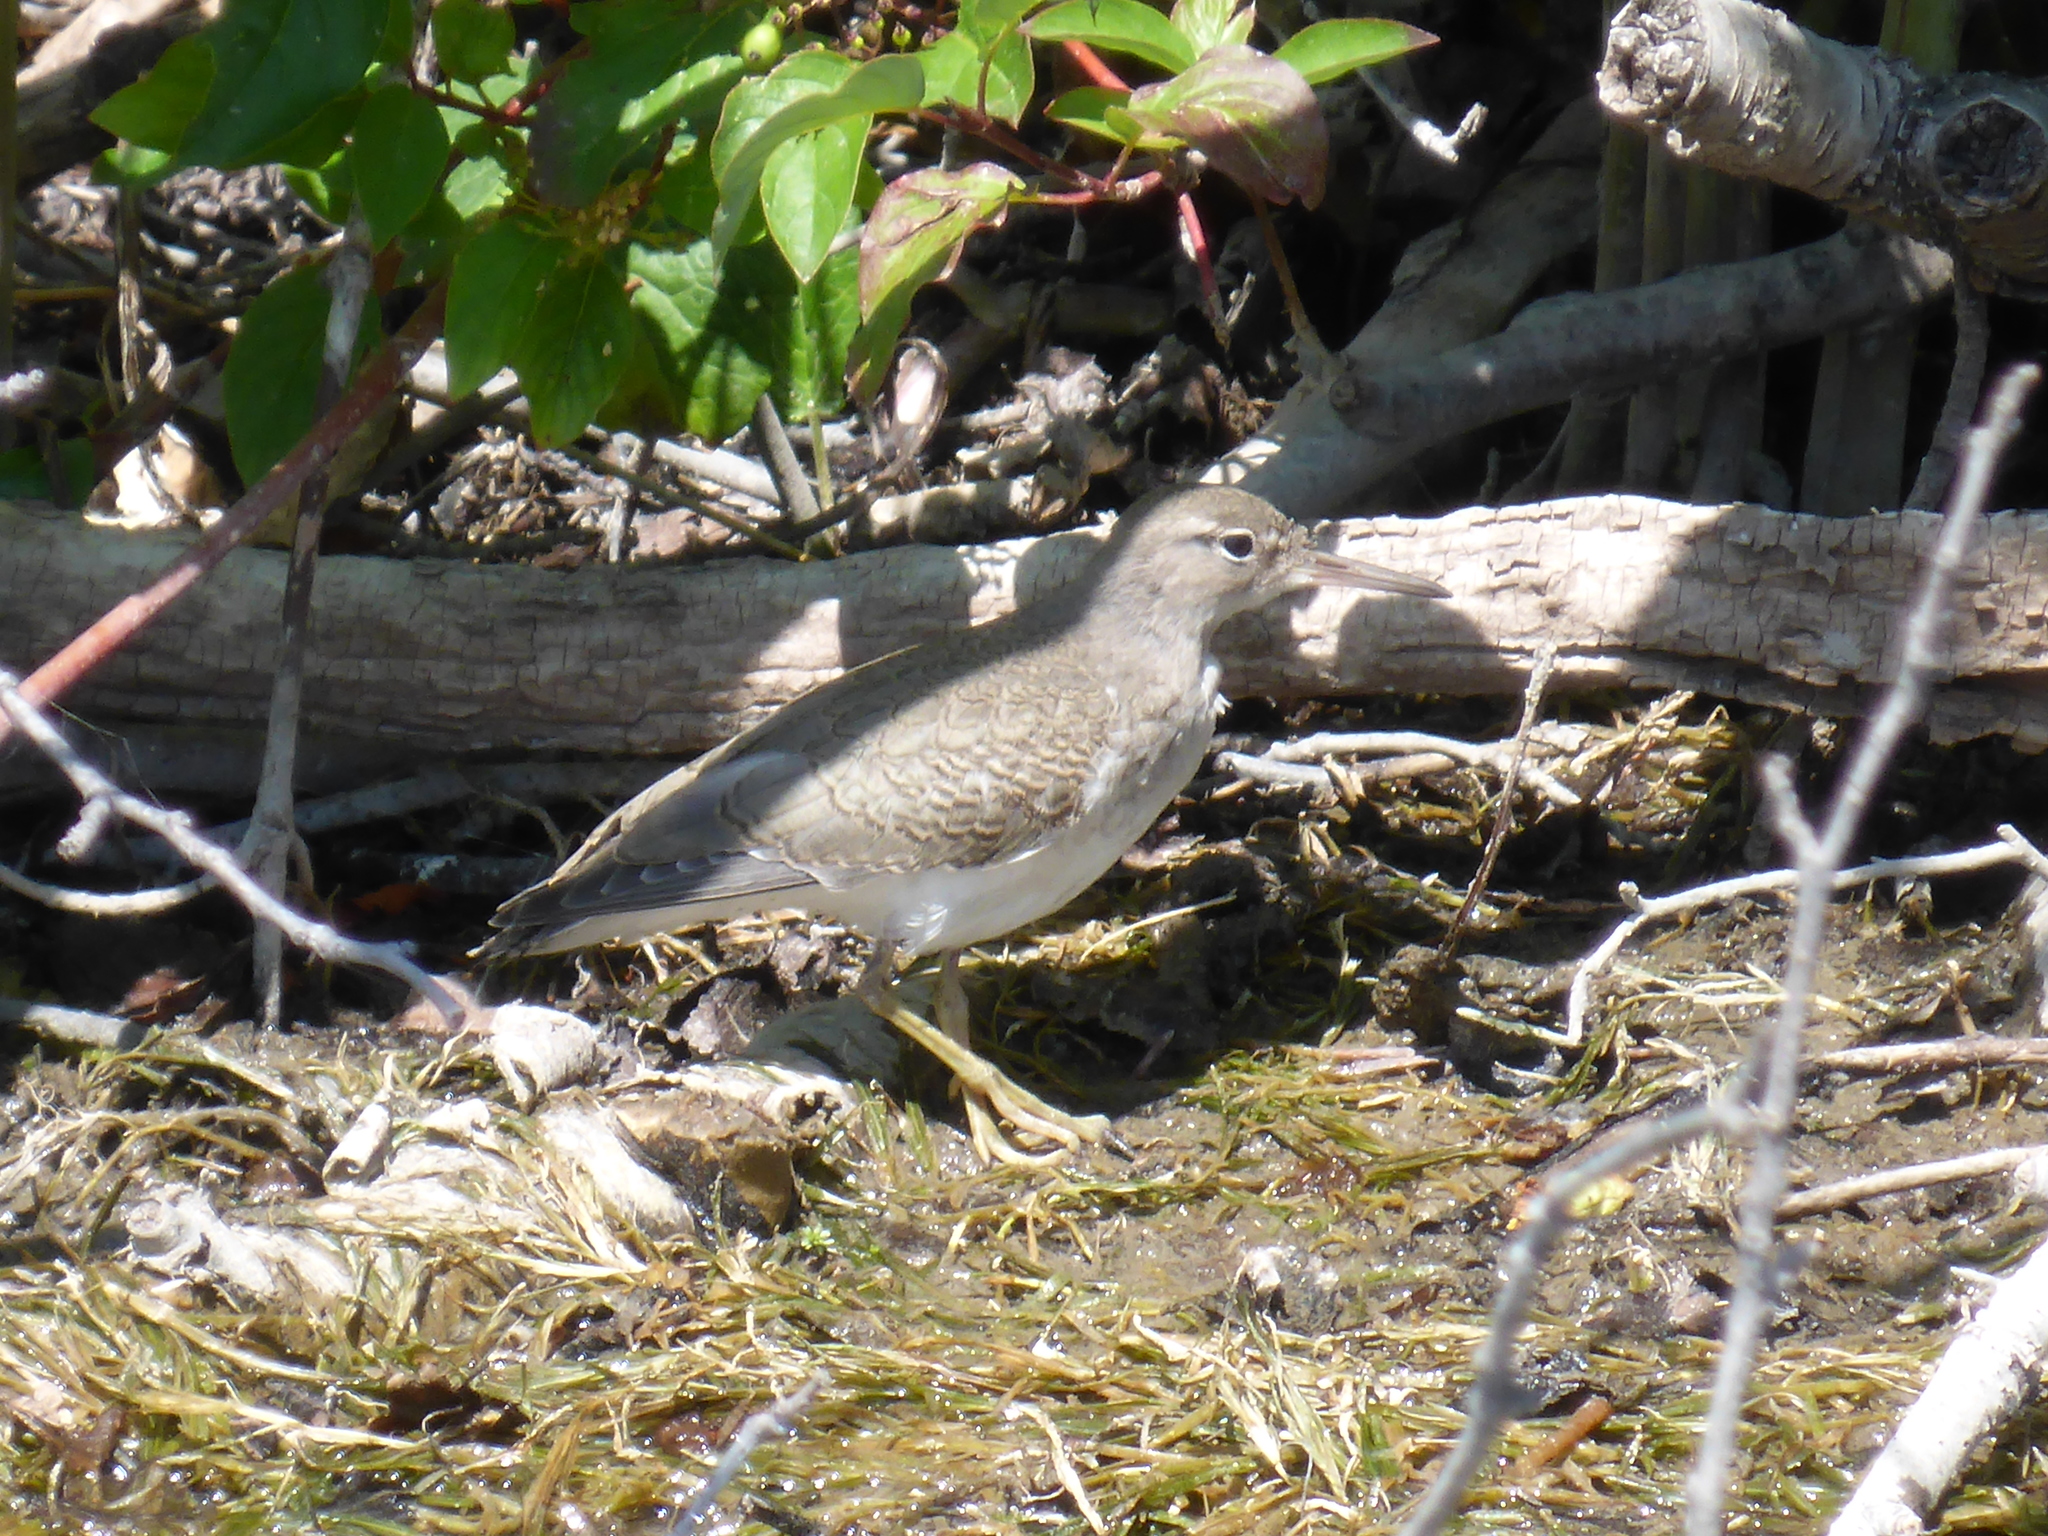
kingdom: Animalia
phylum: Chordata
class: Aves
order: Charadriiformes
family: Scolopacidae
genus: Actitis
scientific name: Actitis macularius
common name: Spotted sandpiper
